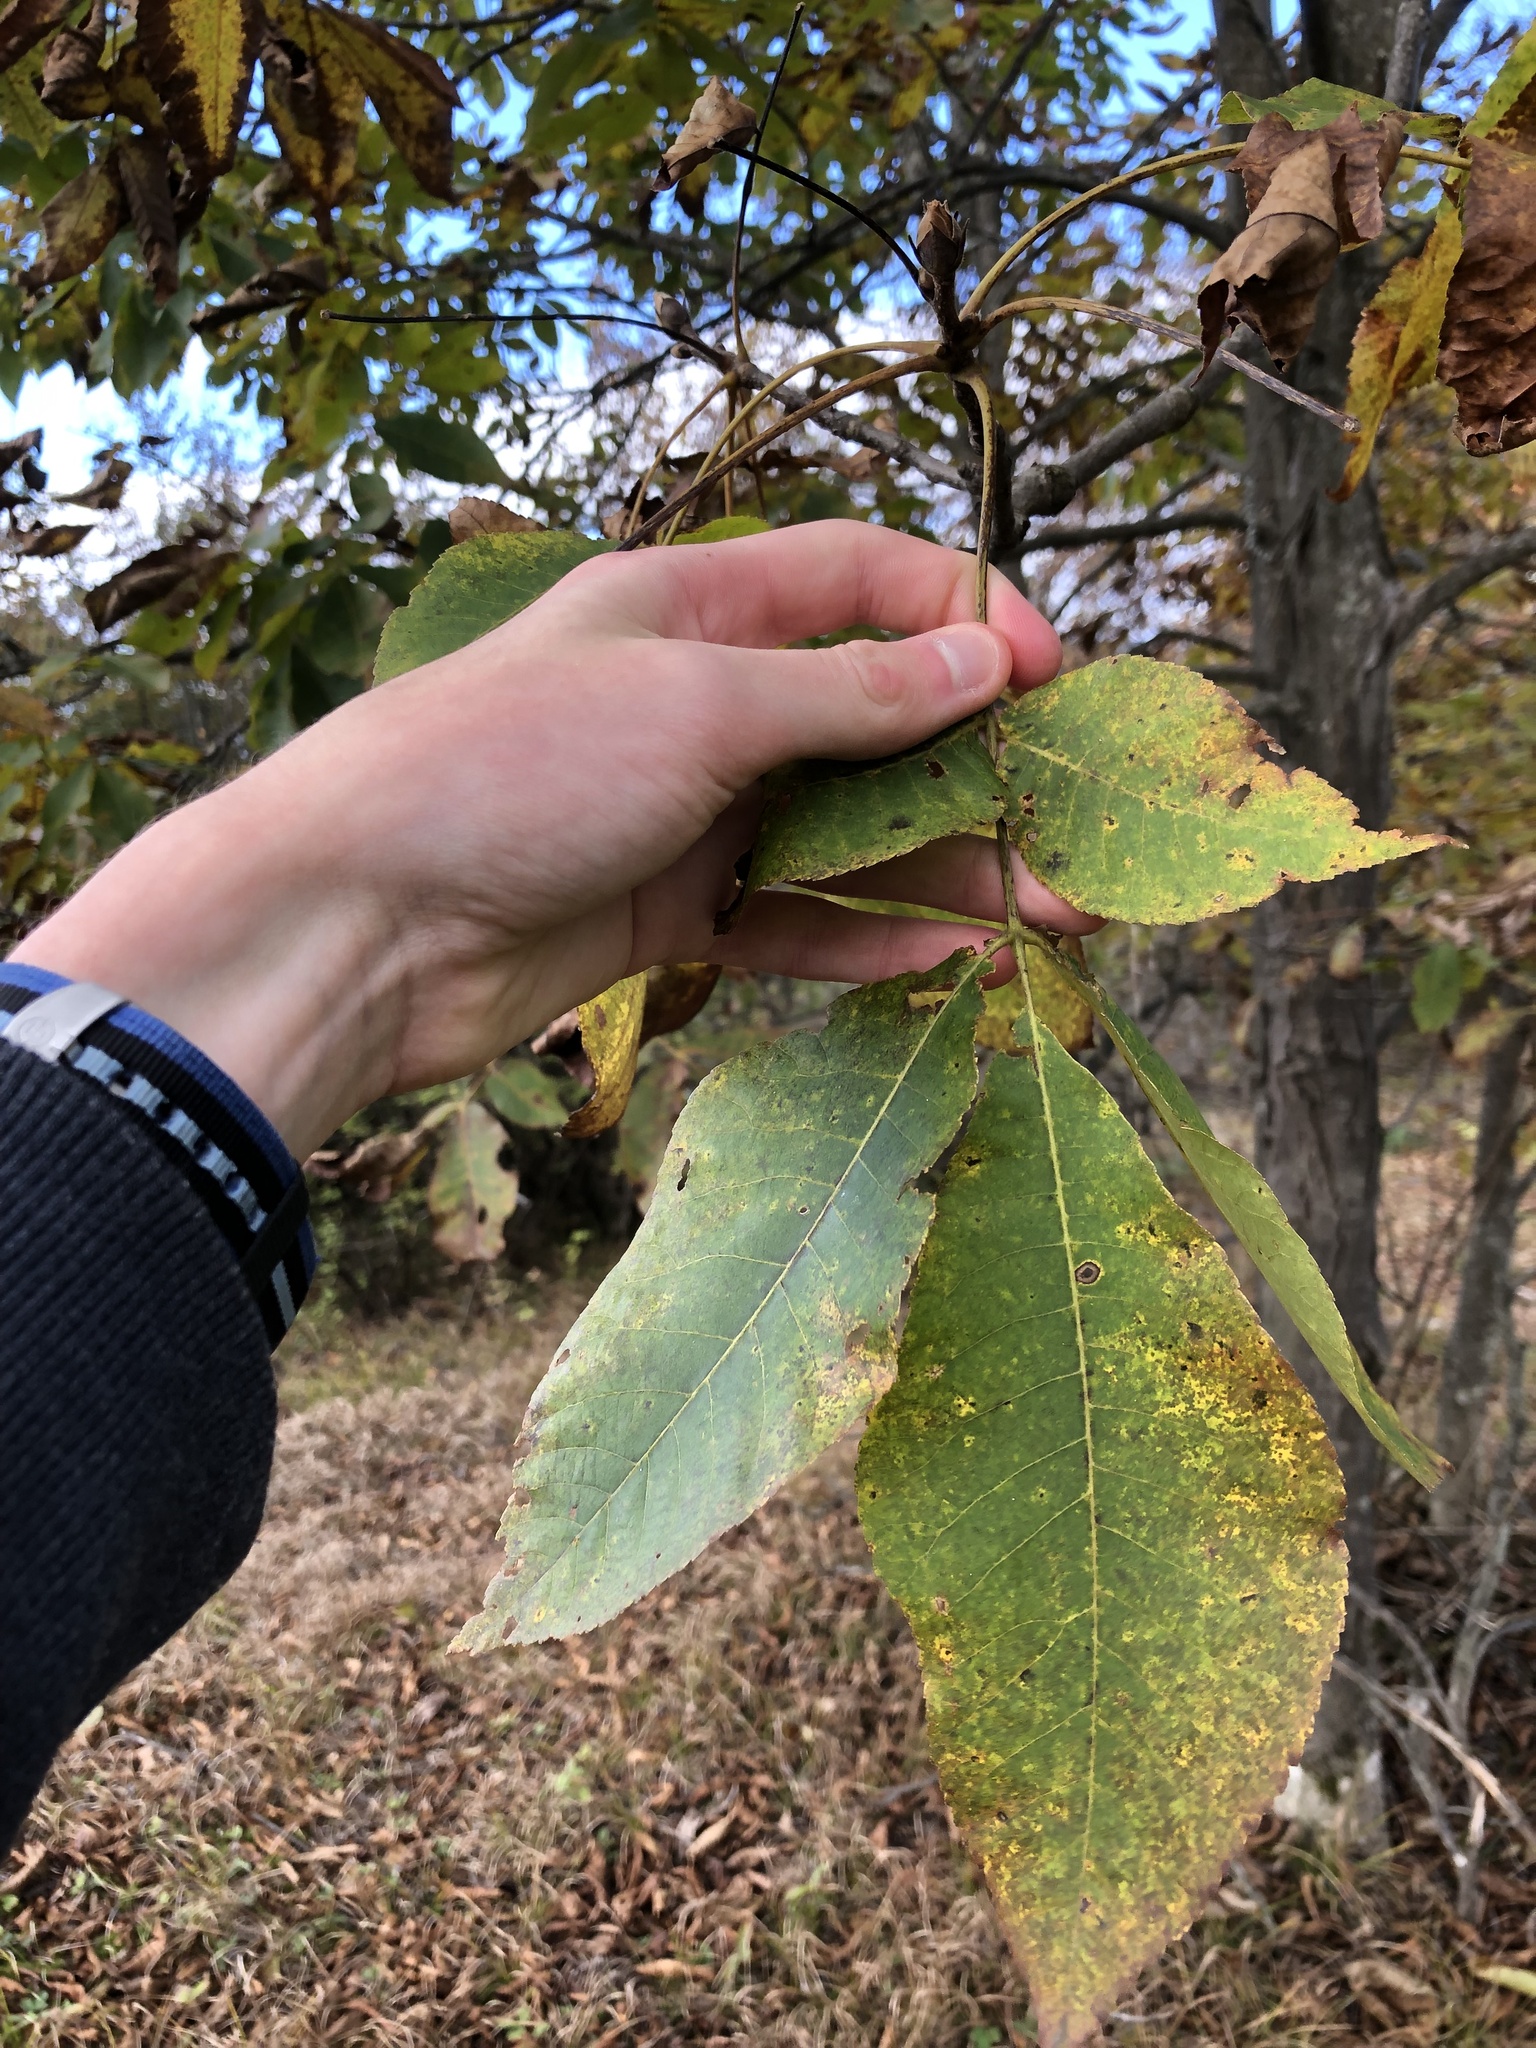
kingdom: Plantae
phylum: Tracheophyta
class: Magnoliopsida
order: Fagales
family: Juglandaceae
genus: Carya
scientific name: Carya ovata
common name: Shagbark hickory
